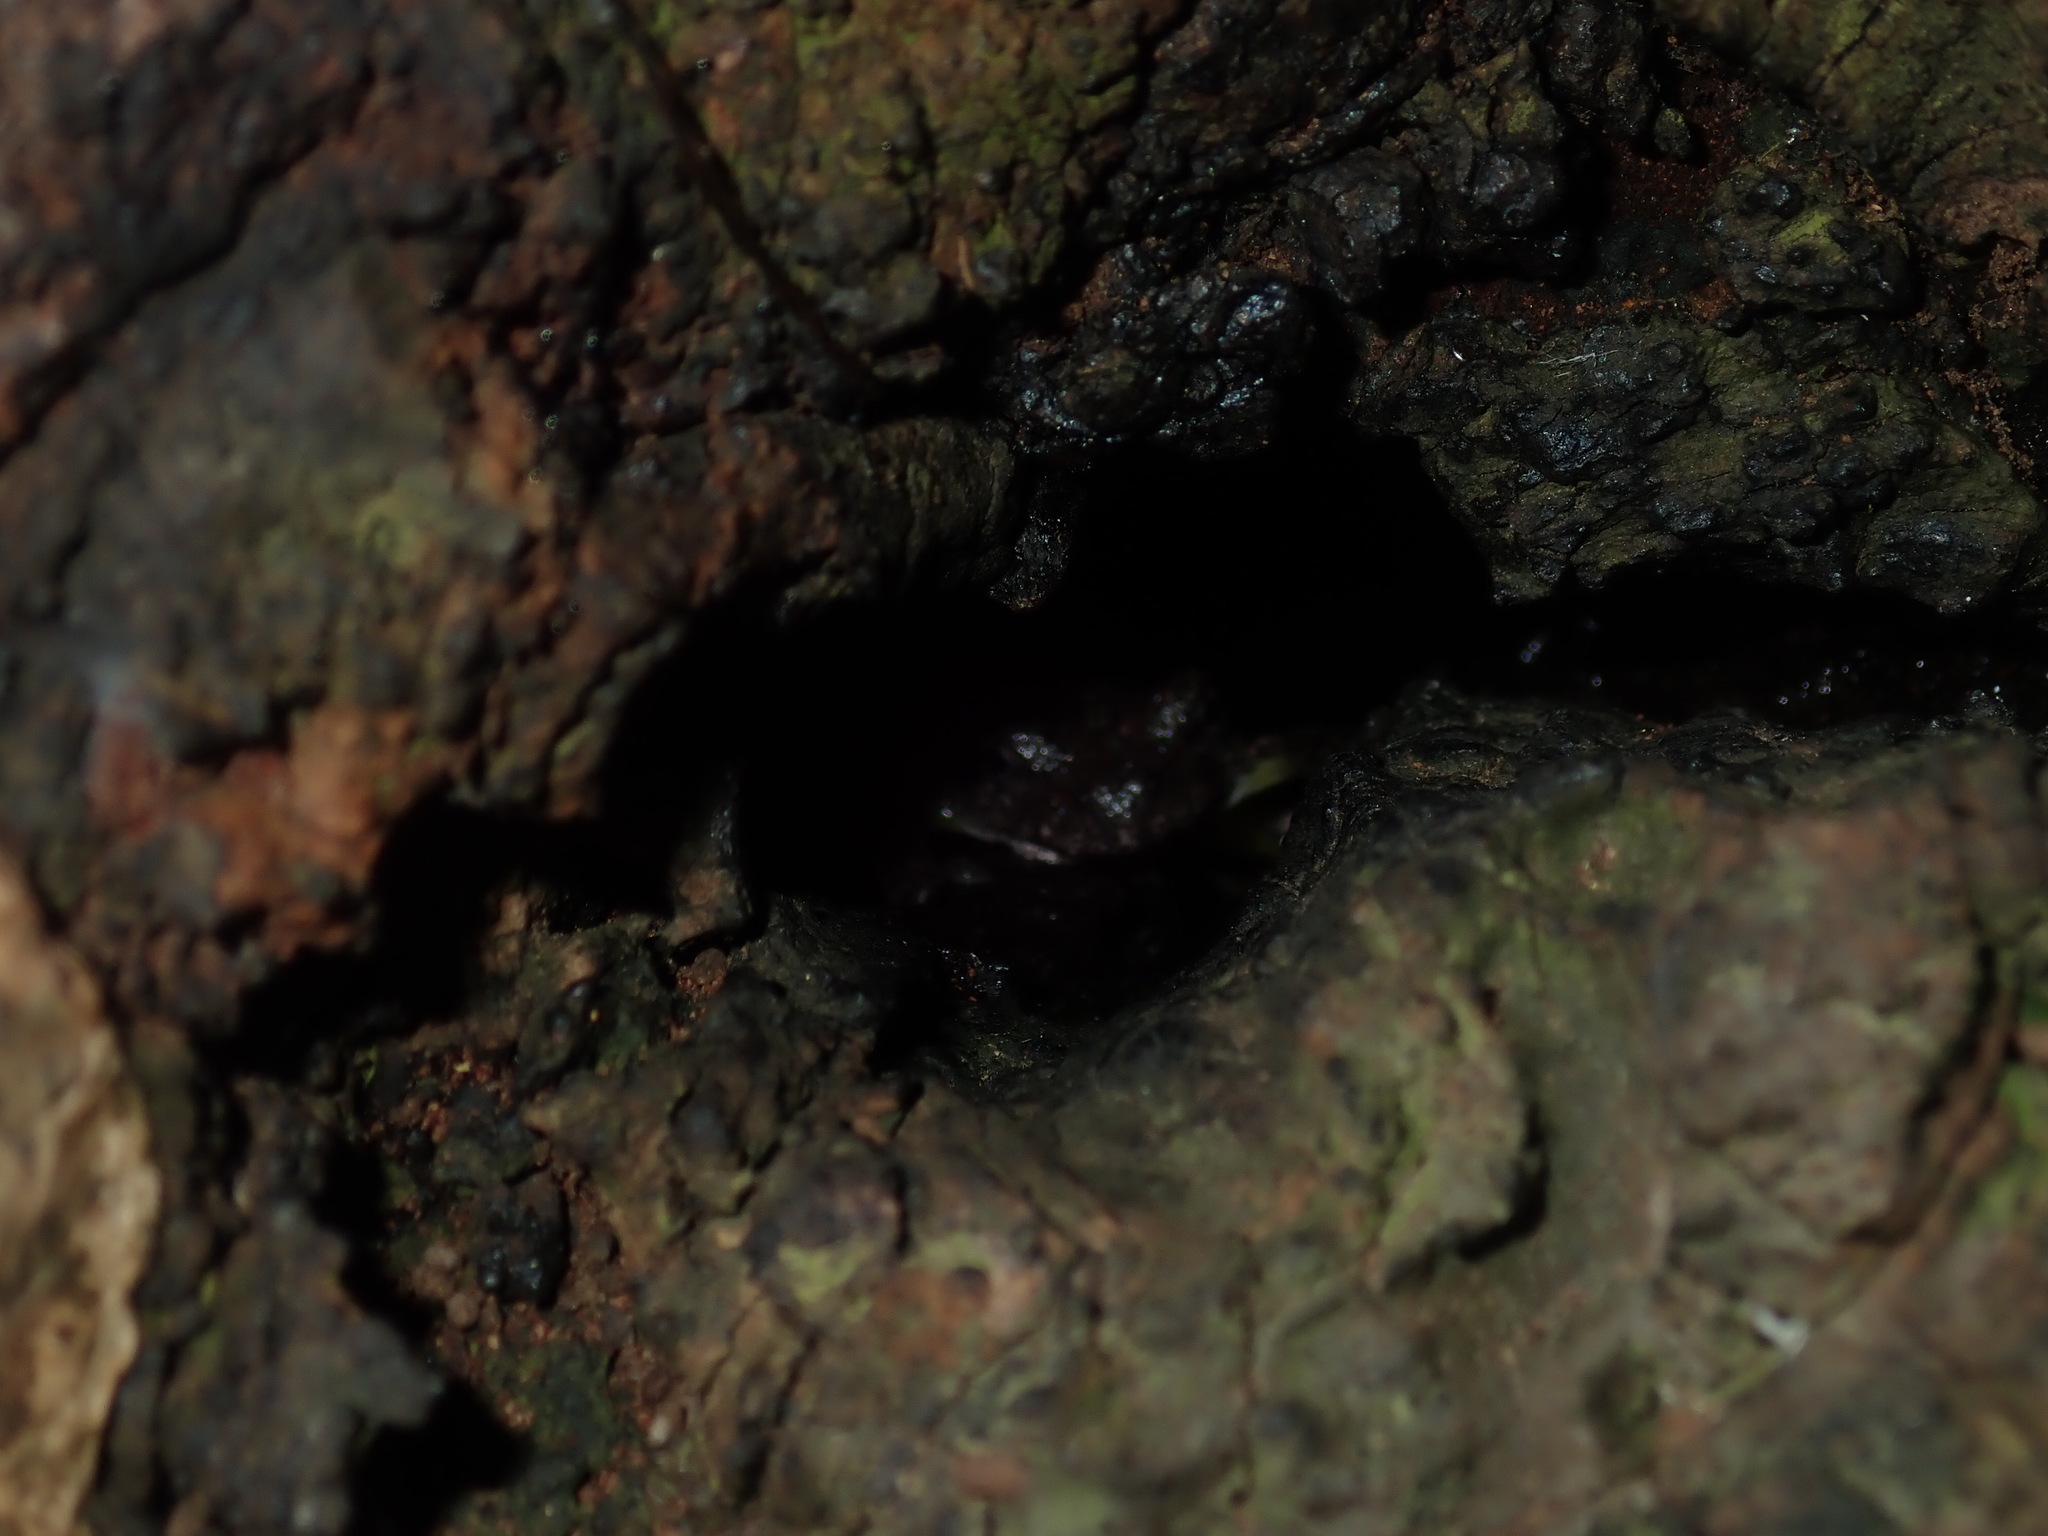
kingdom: Animalia
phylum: Chordata
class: Amphibia
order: Anura
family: Pelodryadidae
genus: Litoria
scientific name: Litoria peronii
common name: Emerald spotted treefrog
